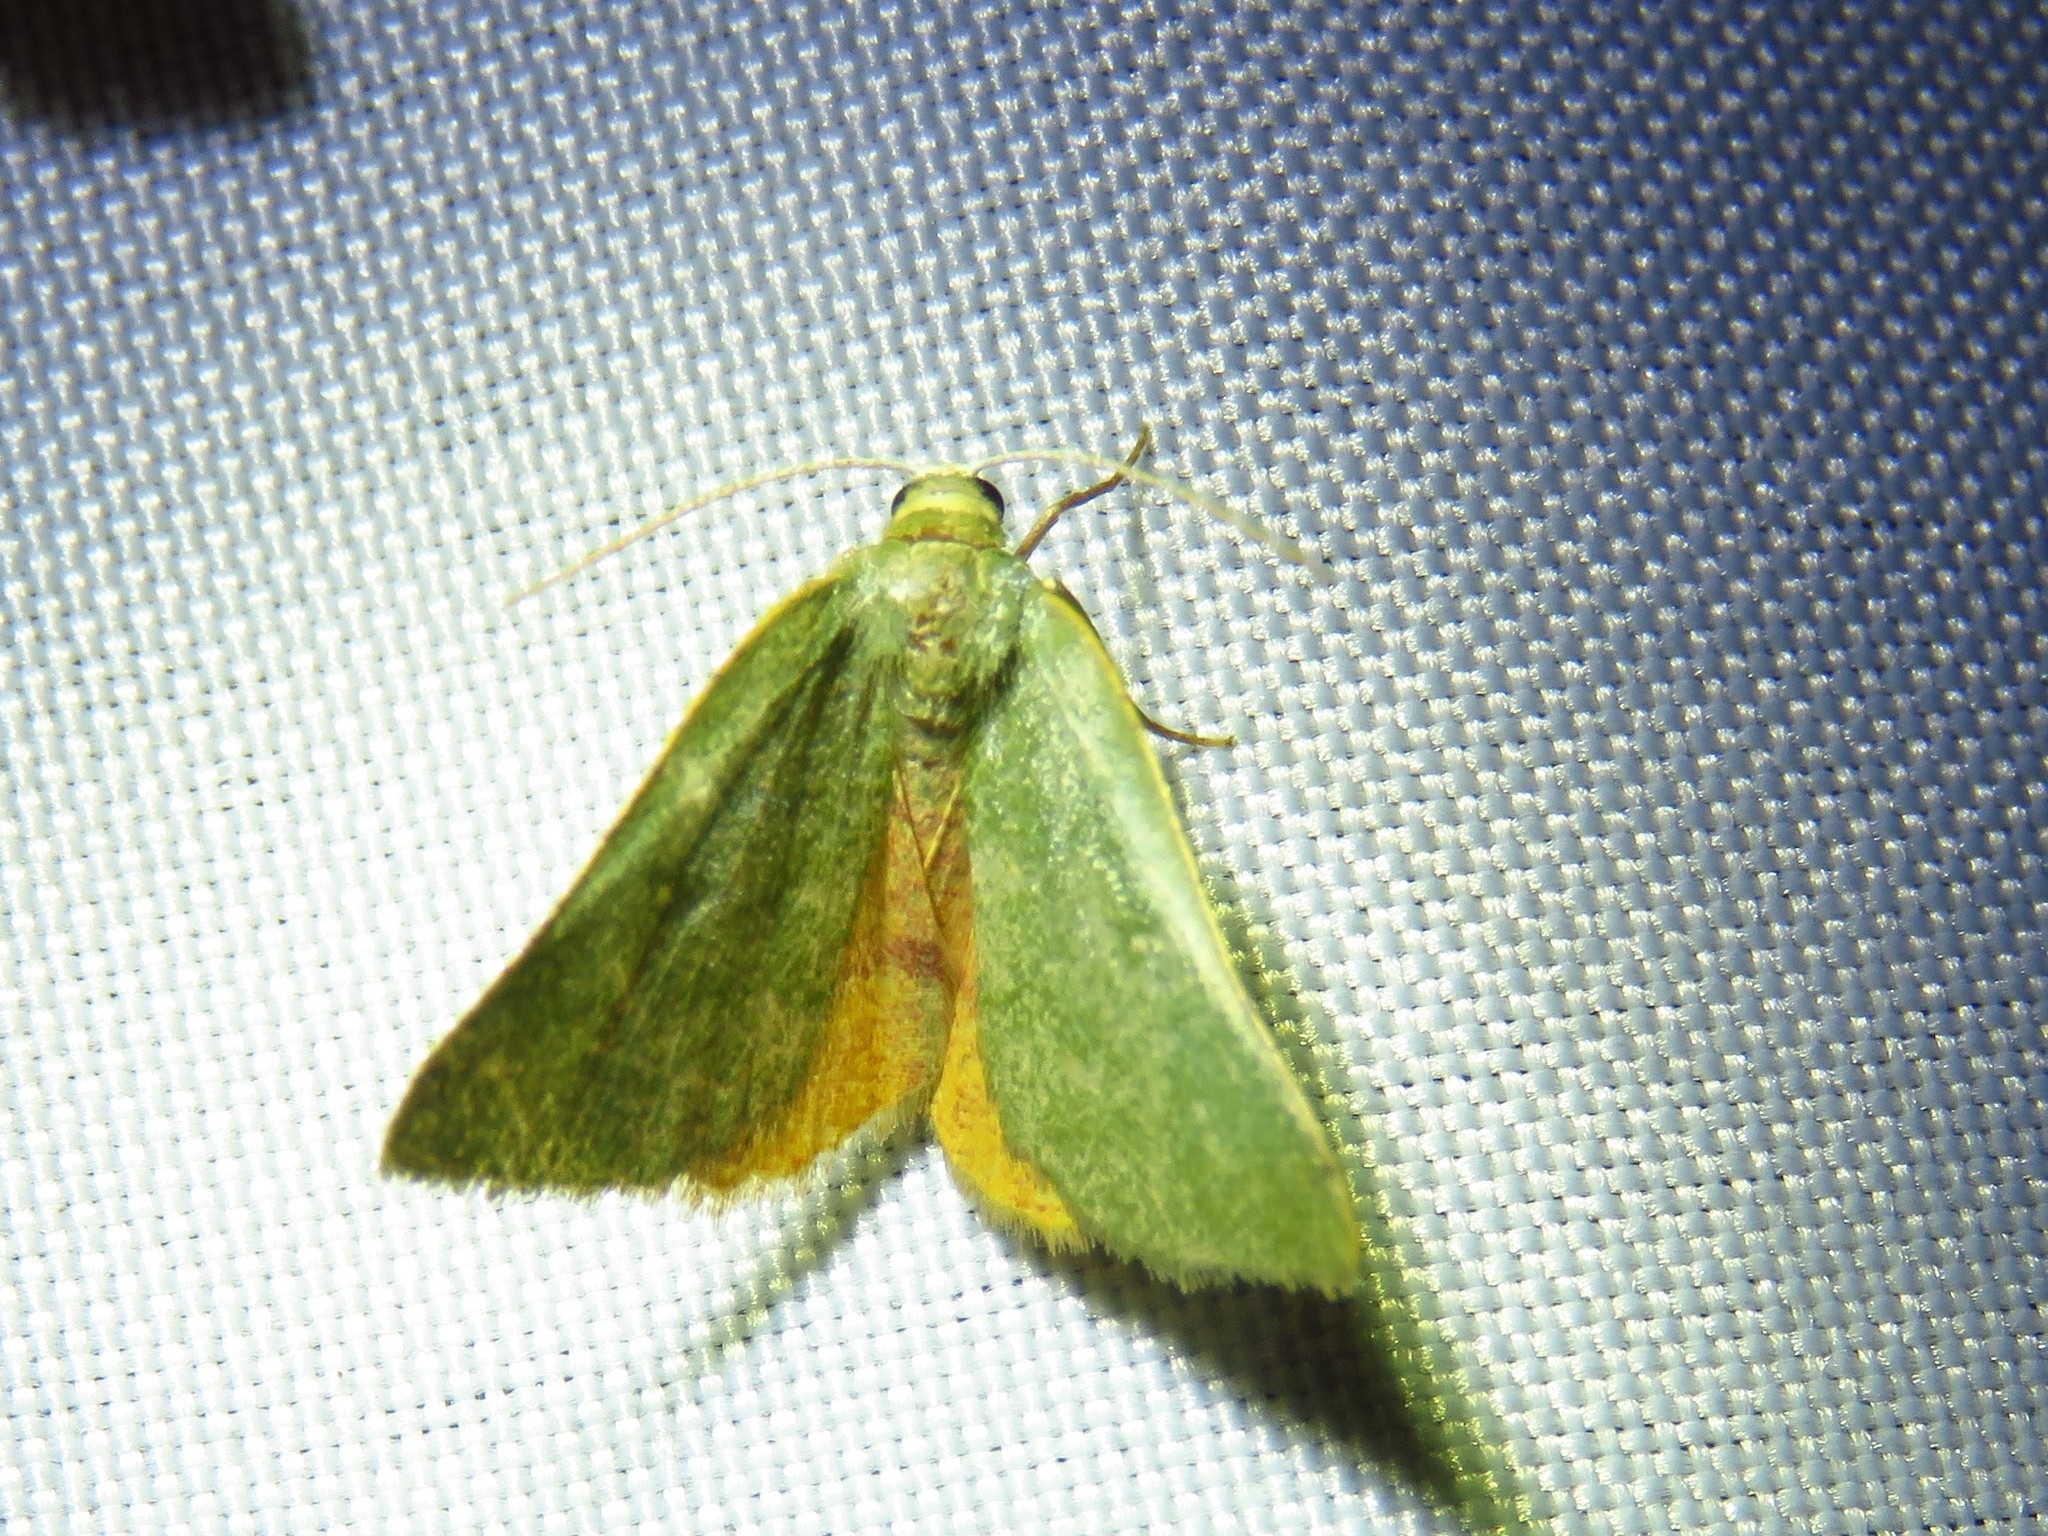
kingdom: Animalia
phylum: Arthropoda
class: Insecta
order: Lepidoptera
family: Geometridae
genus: Chloraspilates
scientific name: Chloraspilates bicoloraria
